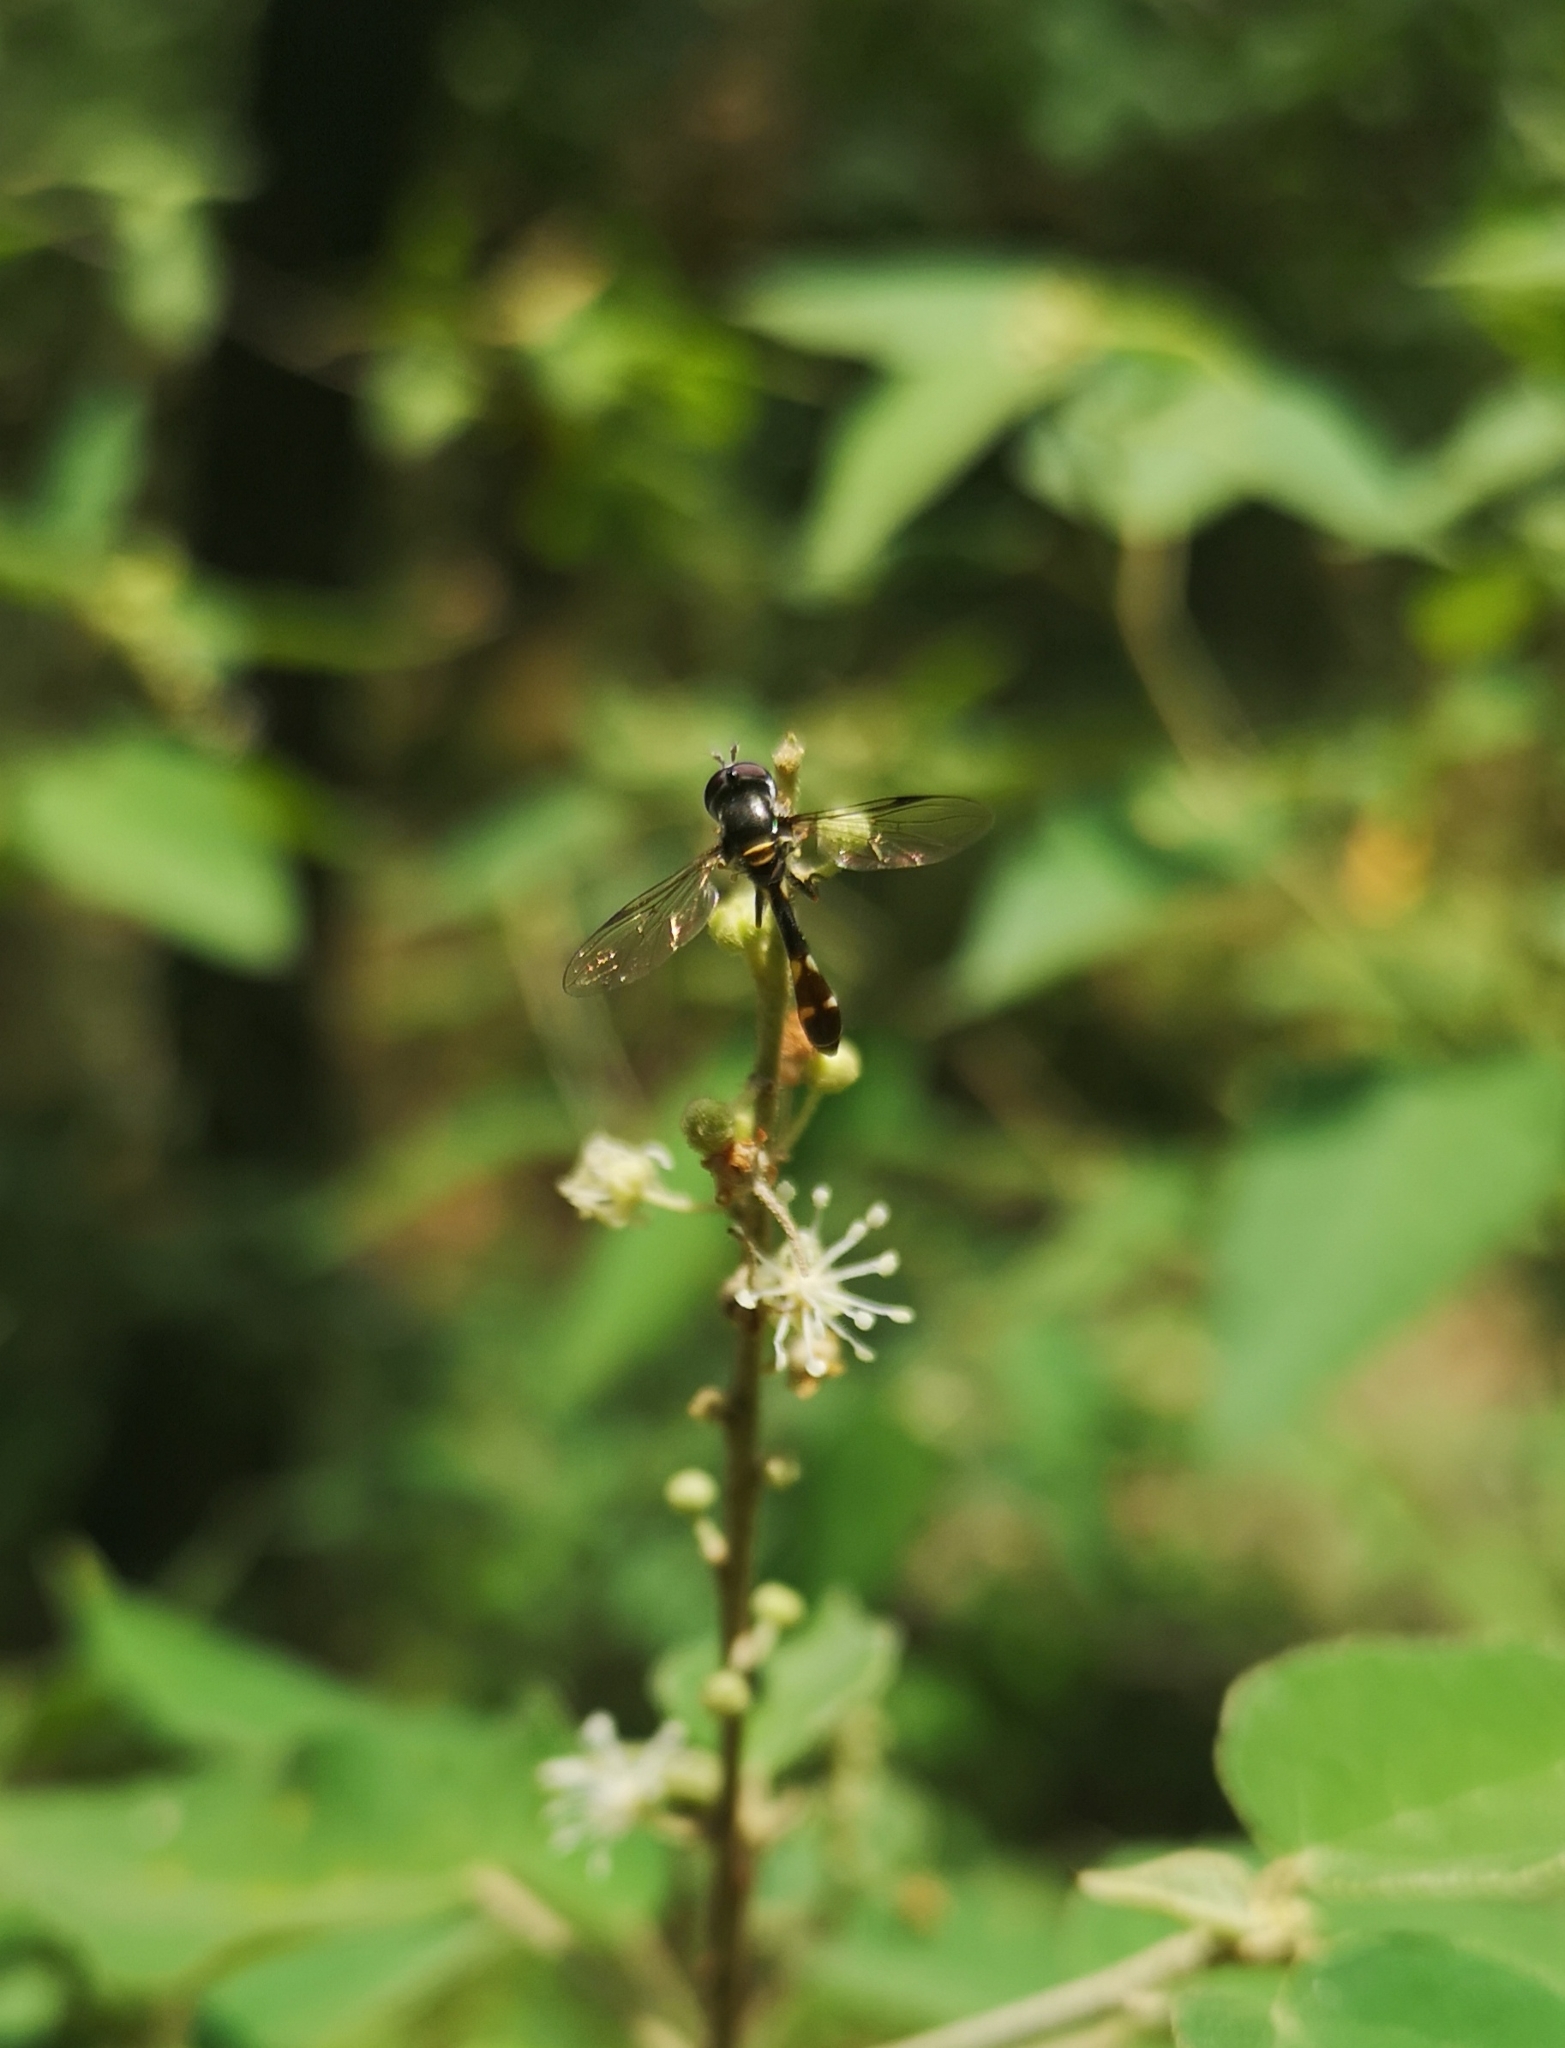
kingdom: Animalia
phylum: Arthropoda
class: Insecta
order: Diptera
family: Syrphidae
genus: Dioprosopa
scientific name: Dioprosopa clavatus
